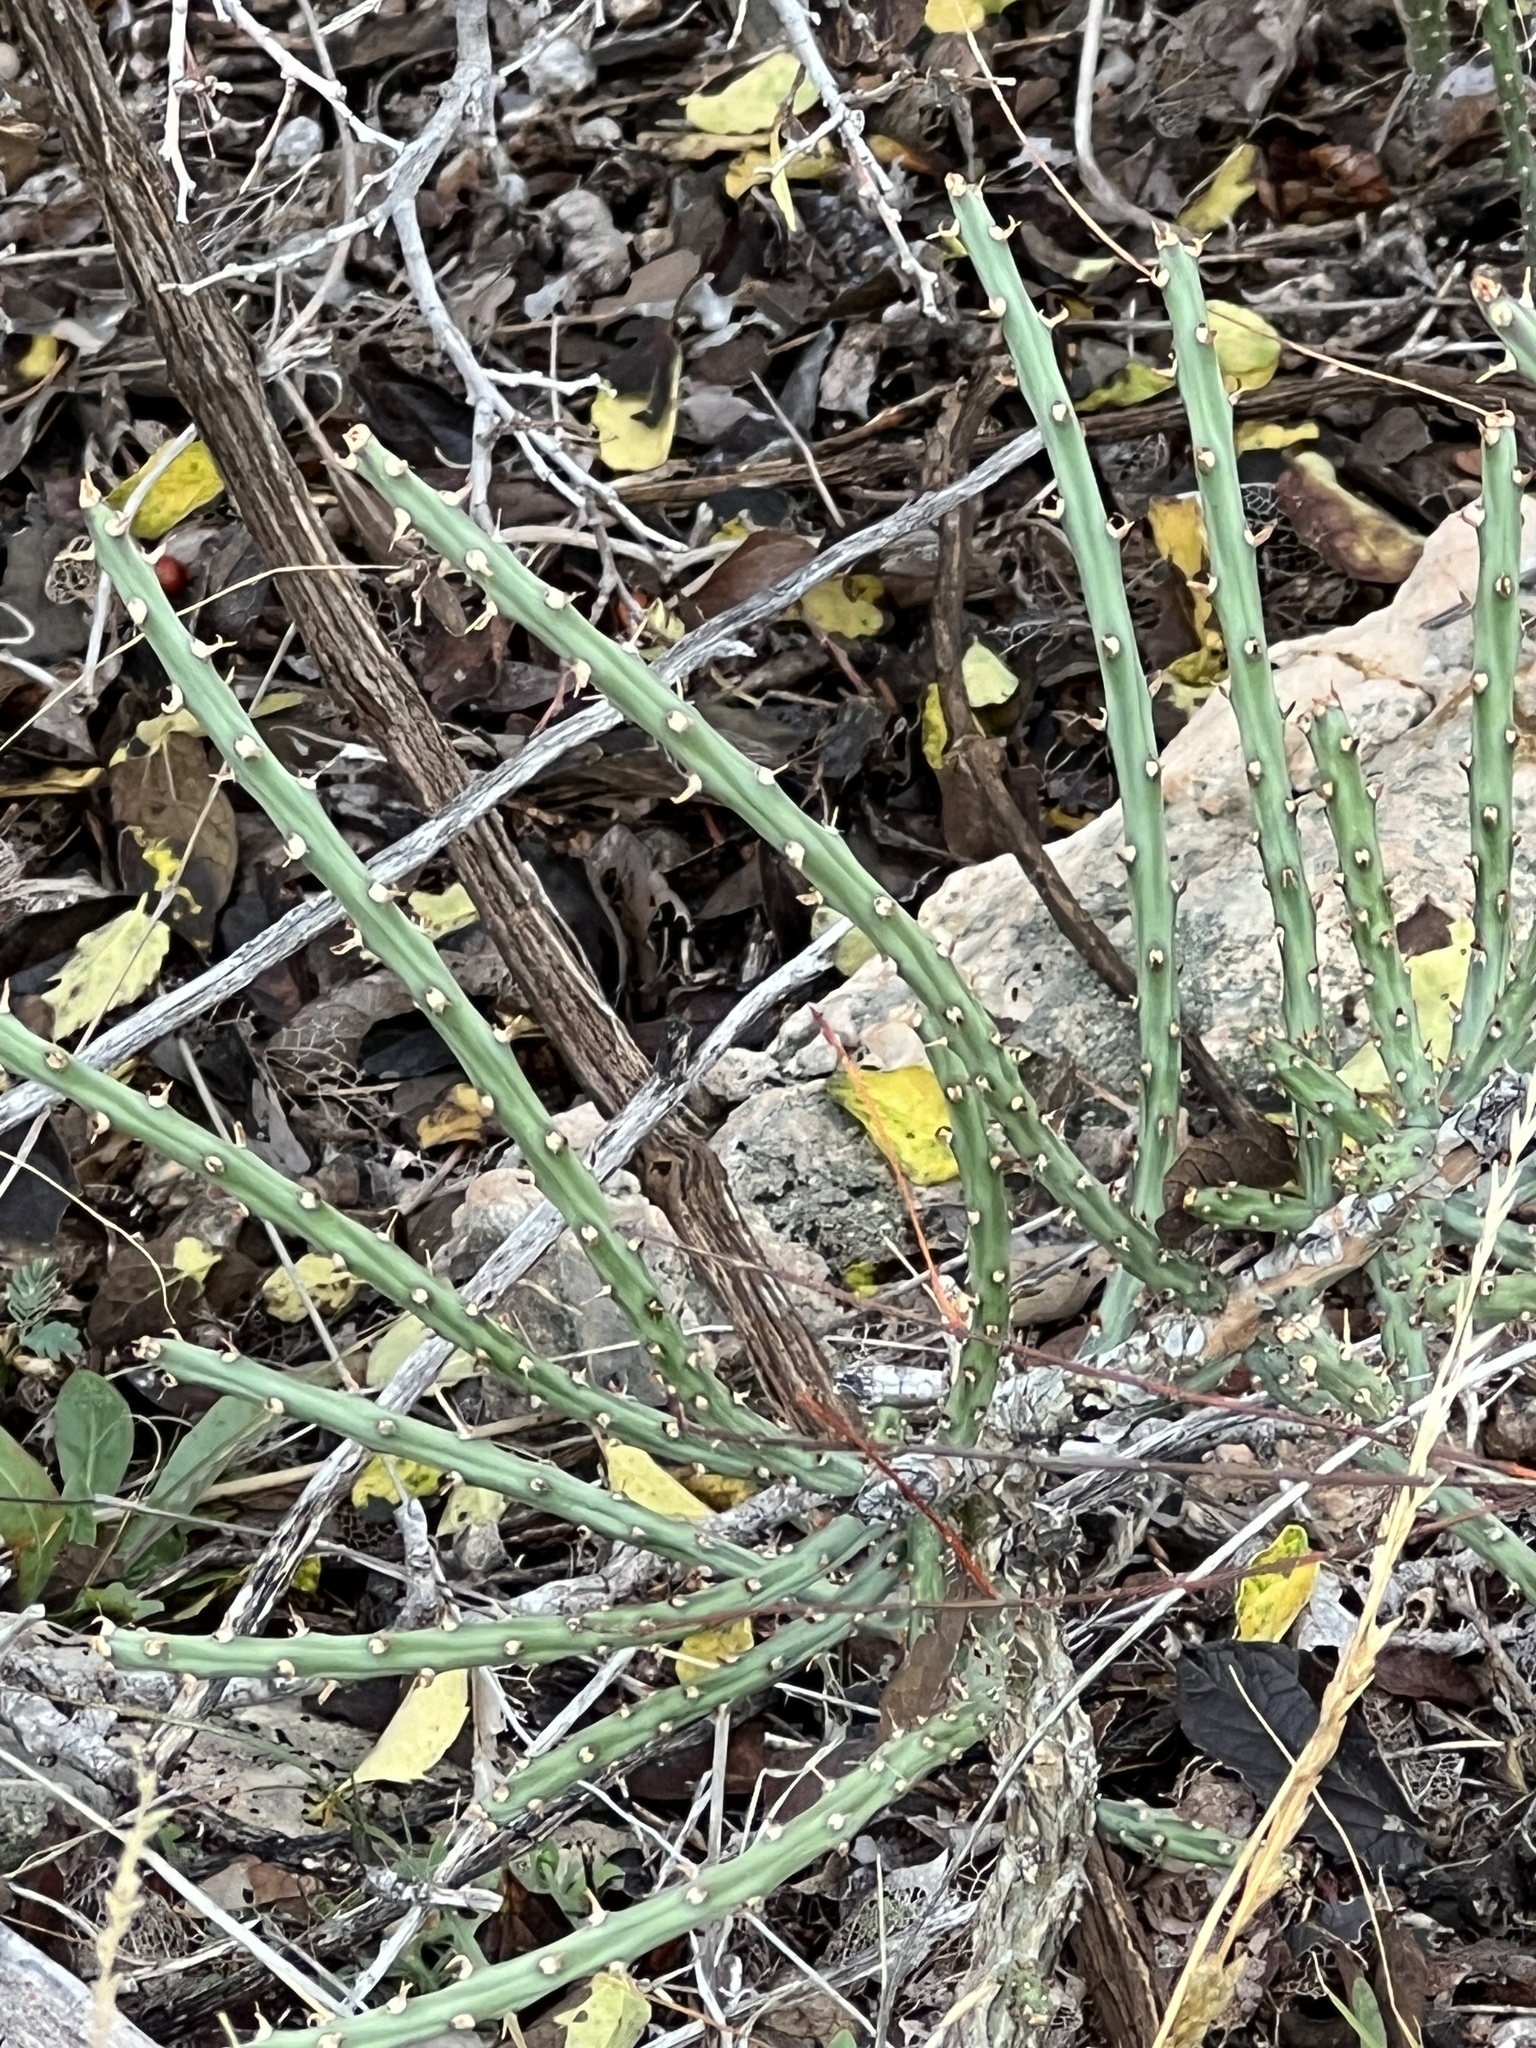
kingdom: Plantae
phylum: Tracheophyta
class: Magnoliopsida
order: Caryophyllales
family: Cactaceae
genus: Cylindropuntia
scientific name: Cylindropuntia leptocaulis
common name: Christmas cactus
